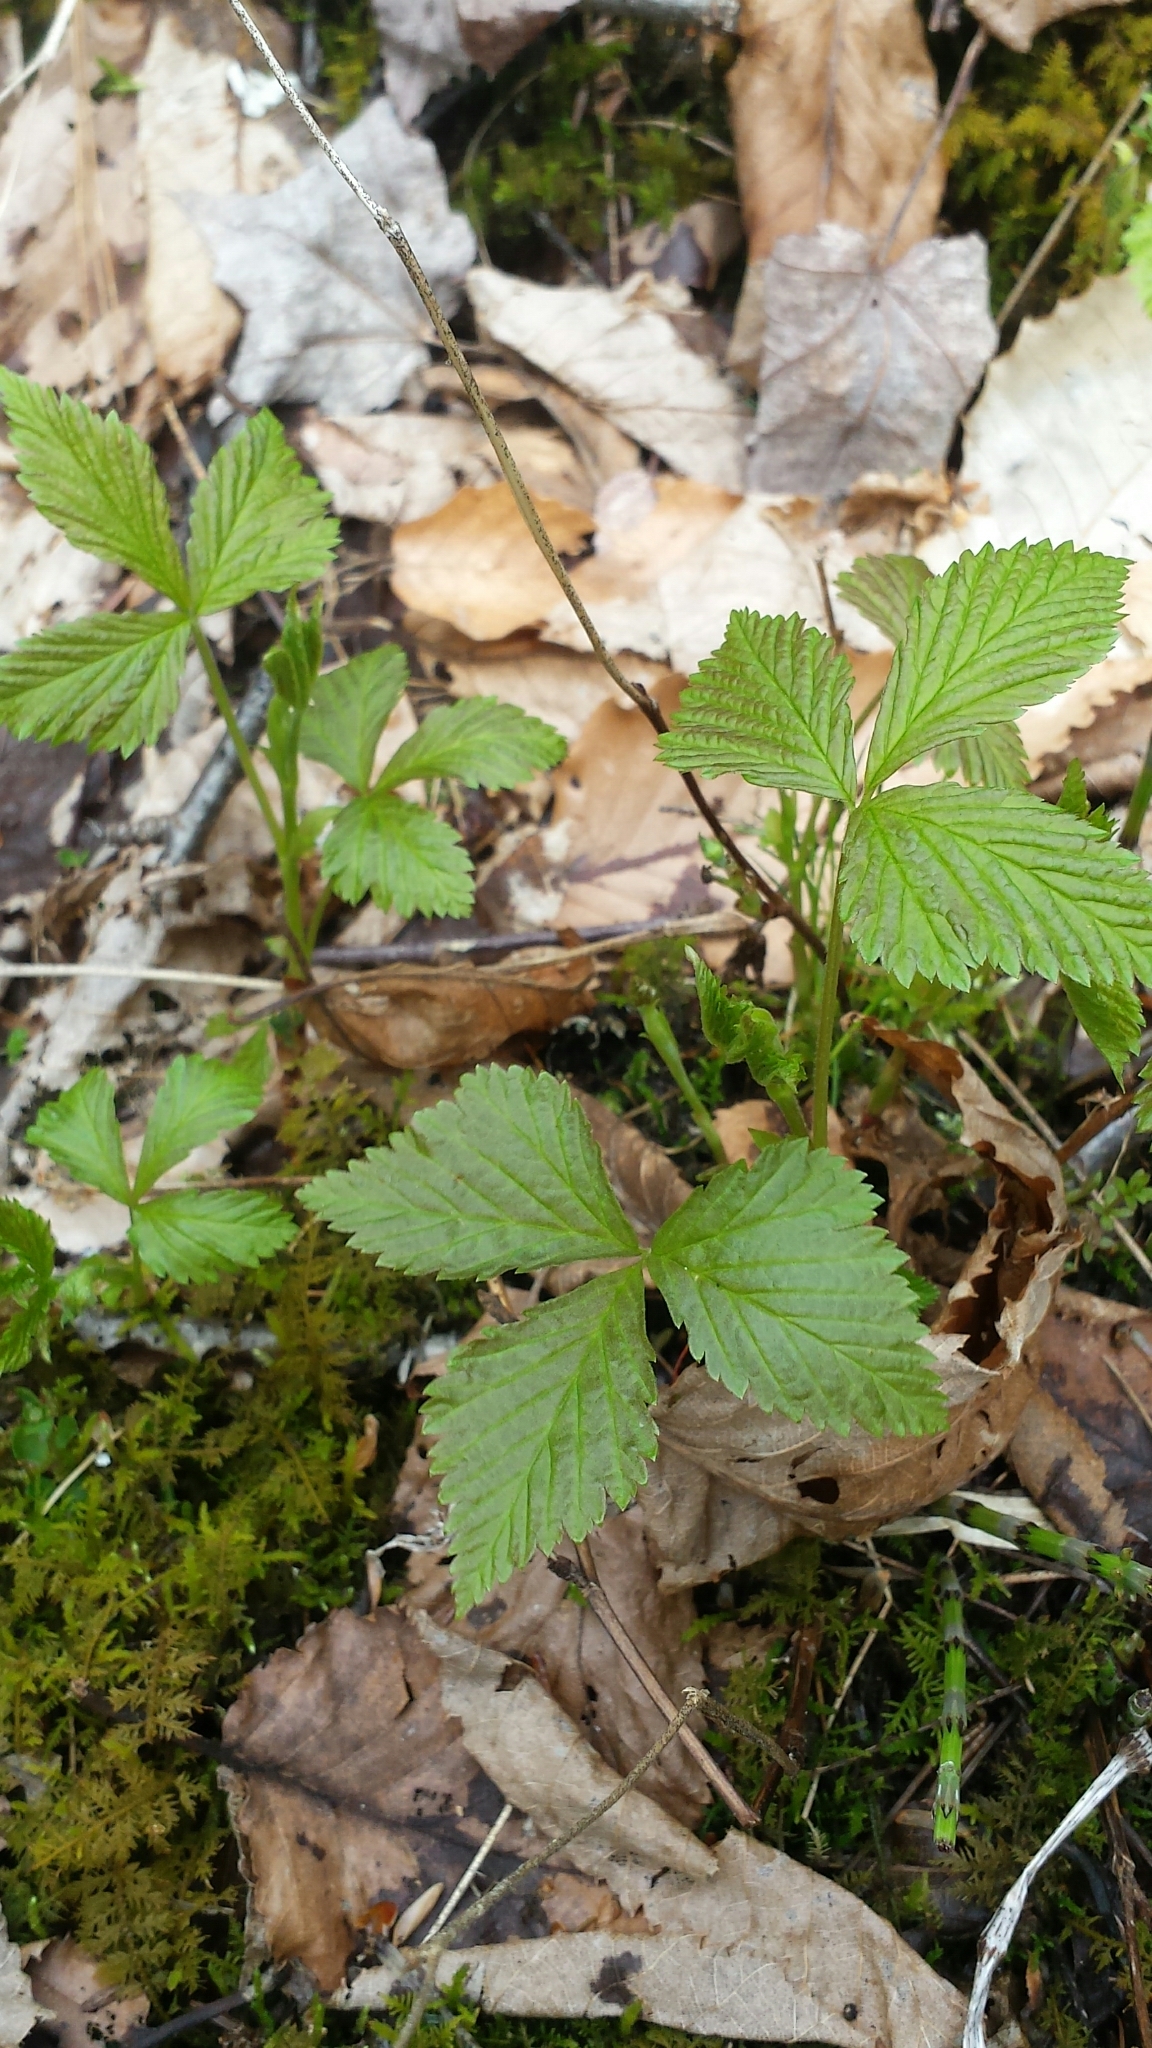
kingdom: Plantae
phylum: Tracheophyta
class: Magnoliopsida
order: Rosales
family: Rosaceae
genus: Rubus
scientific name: Rubus pubescens
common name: Dwarf raspberry
